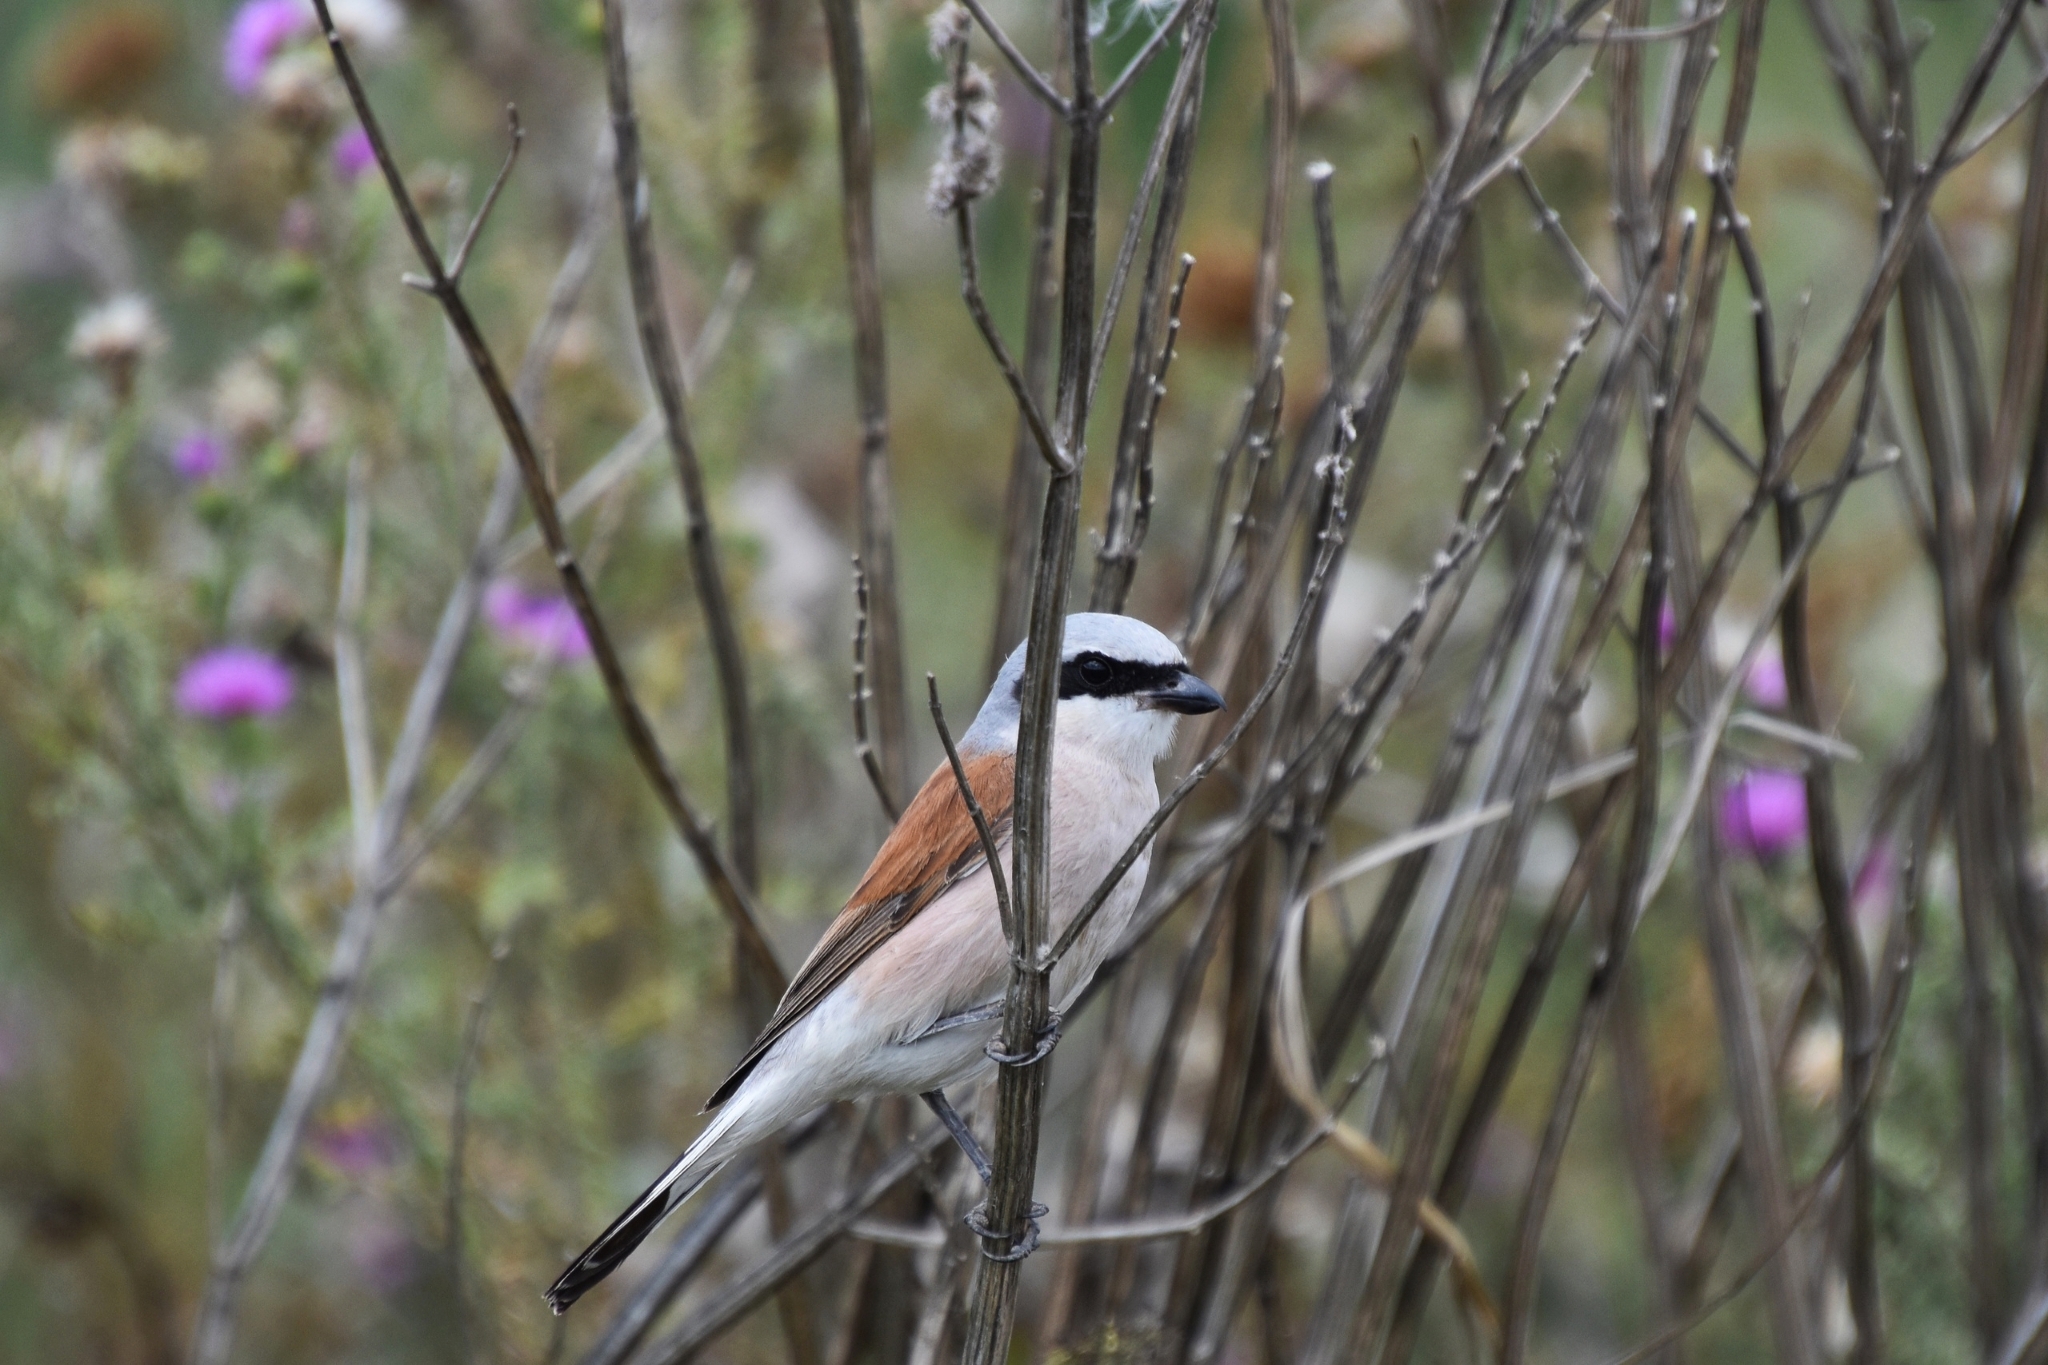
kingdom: Animalia
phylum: Chordata
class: Aves
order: Passeriformes
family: Laniidae
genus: Lanius
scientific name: Lanius collurio
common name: Red-backed shrike
